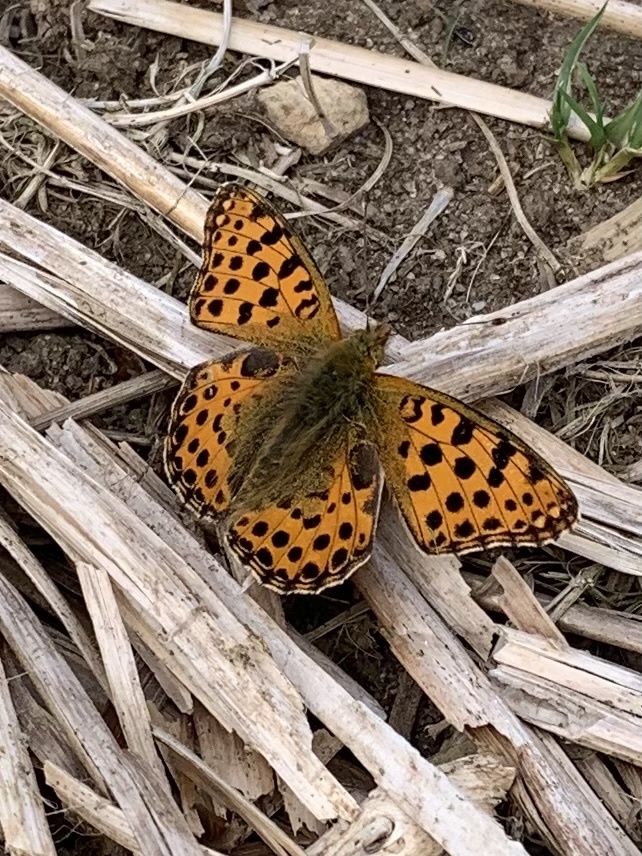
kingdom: Animalia
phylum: Arthropoda
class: Insecta
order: Lepidoptera
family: Nymphalidae
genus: Issoria
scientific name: Issoria lathonia
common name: Queen of spain fritillary
